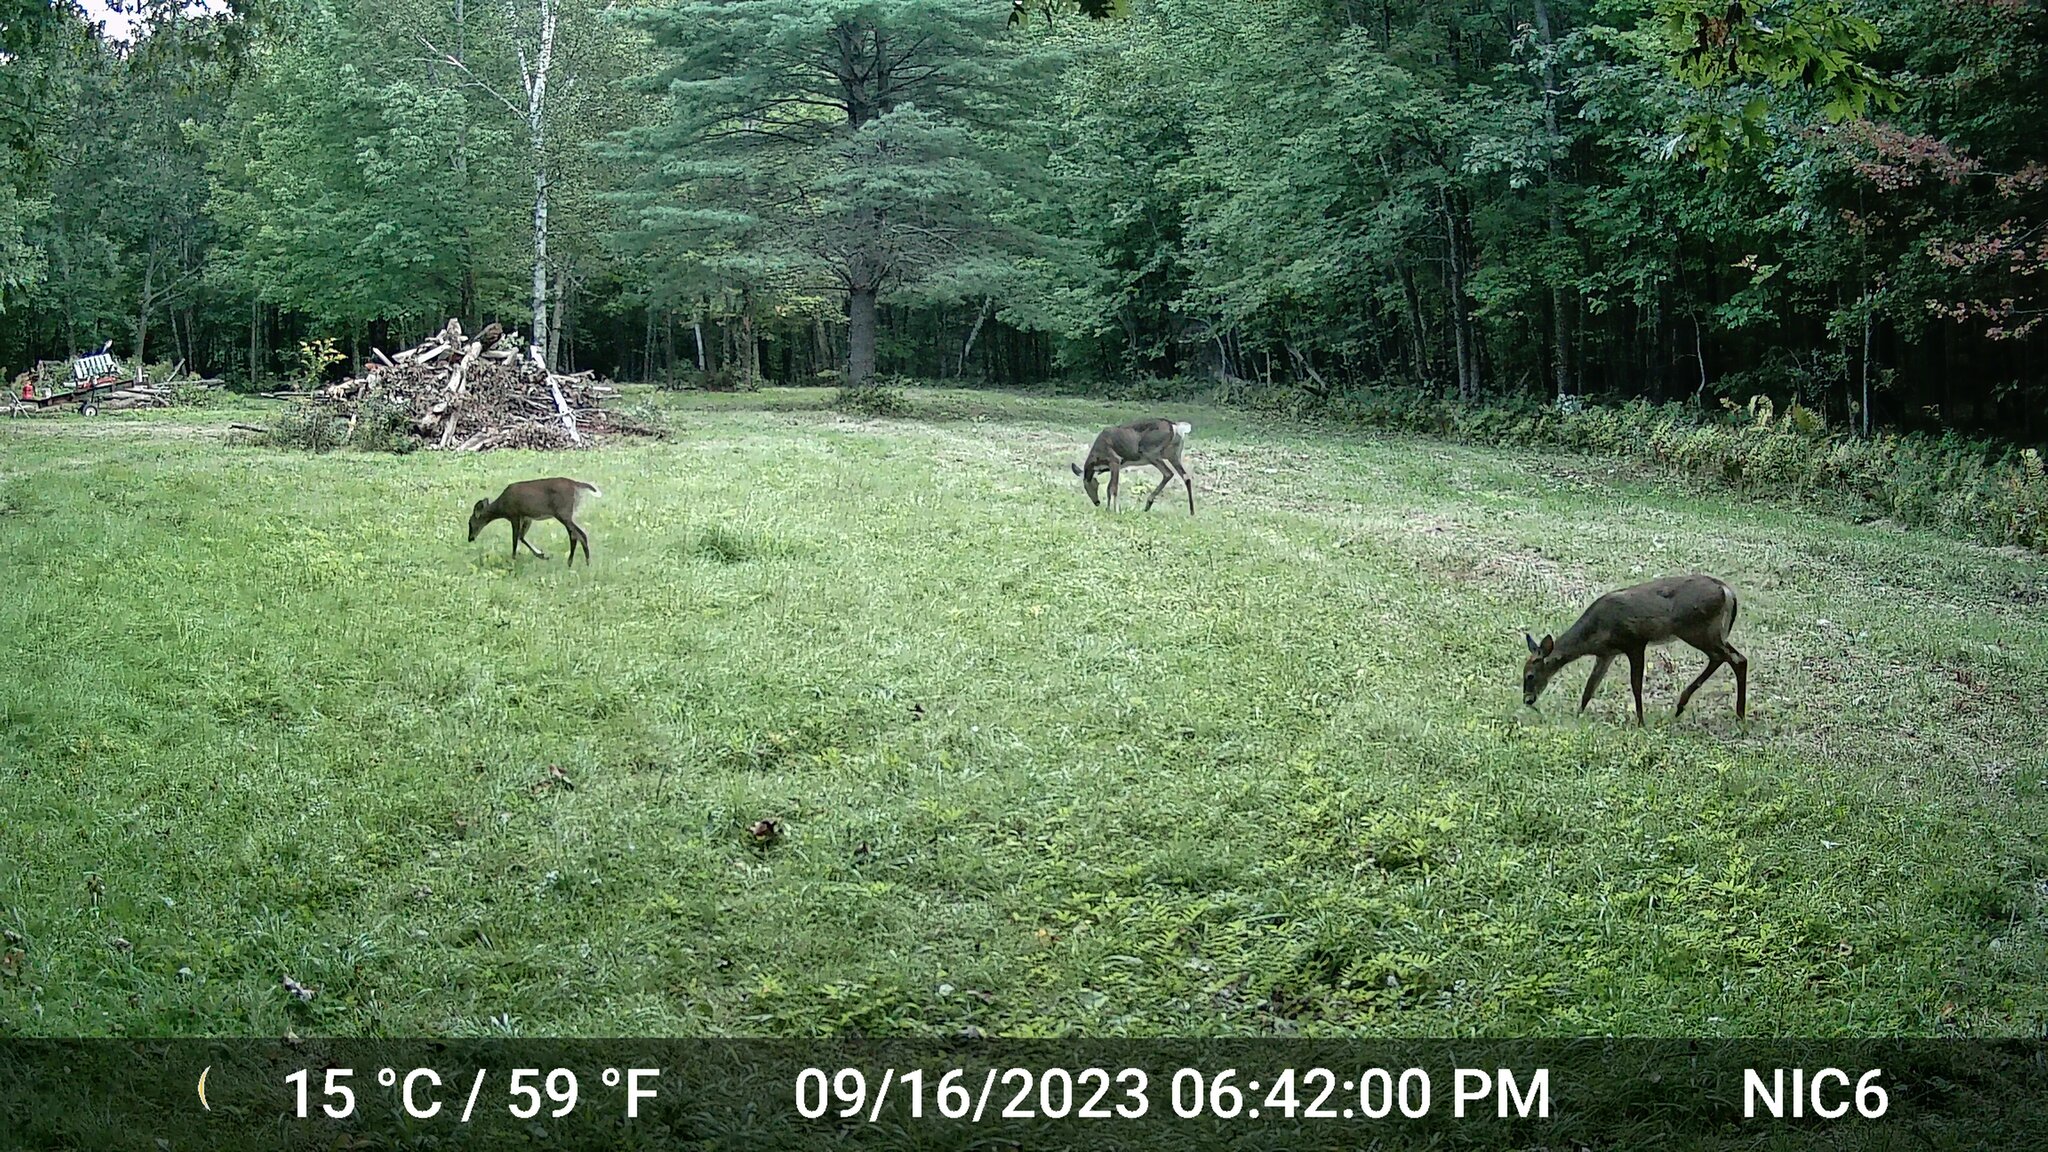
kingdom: Animalia
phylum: Chordata
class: Mammalia
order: Artiodactyla
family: Cervidae
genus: Odocoileus
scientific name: Odocoileus virginianus
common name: White-tailed deer
